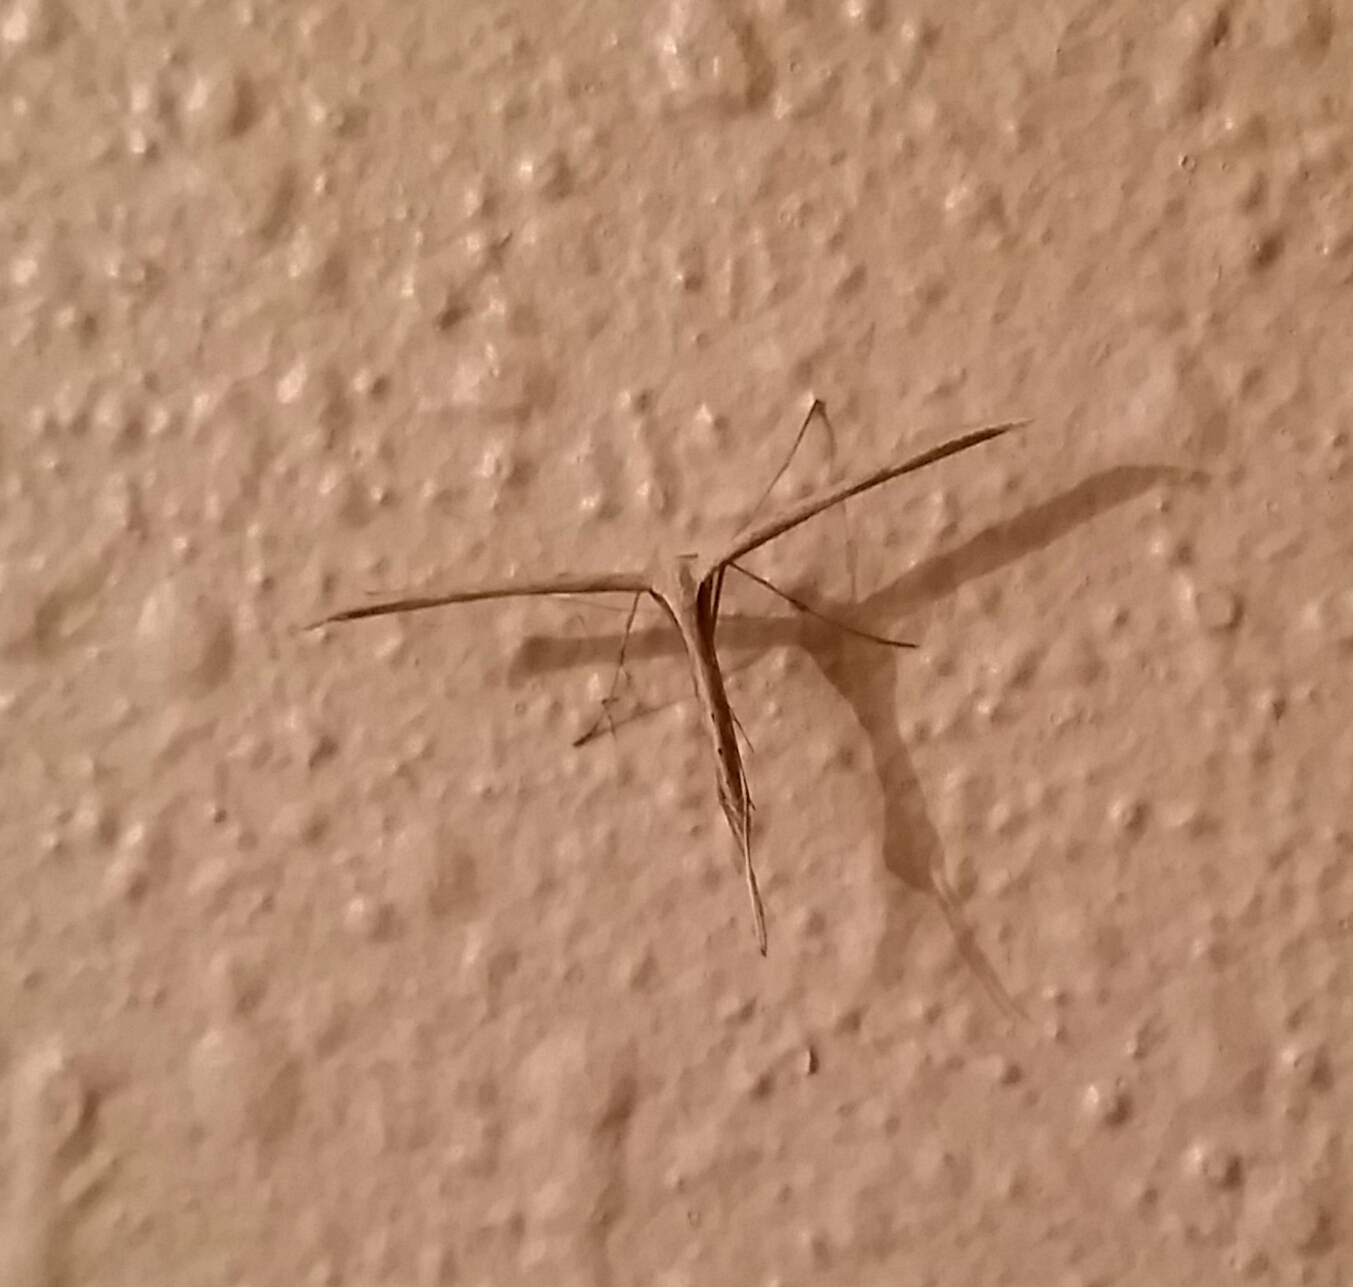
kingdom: Animalia
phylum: Arthropoda
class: Insecta
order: Lepidoptera
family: Pterophoridae
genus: Emmelina
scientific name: Emmelina monodactyla
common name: Common plume
